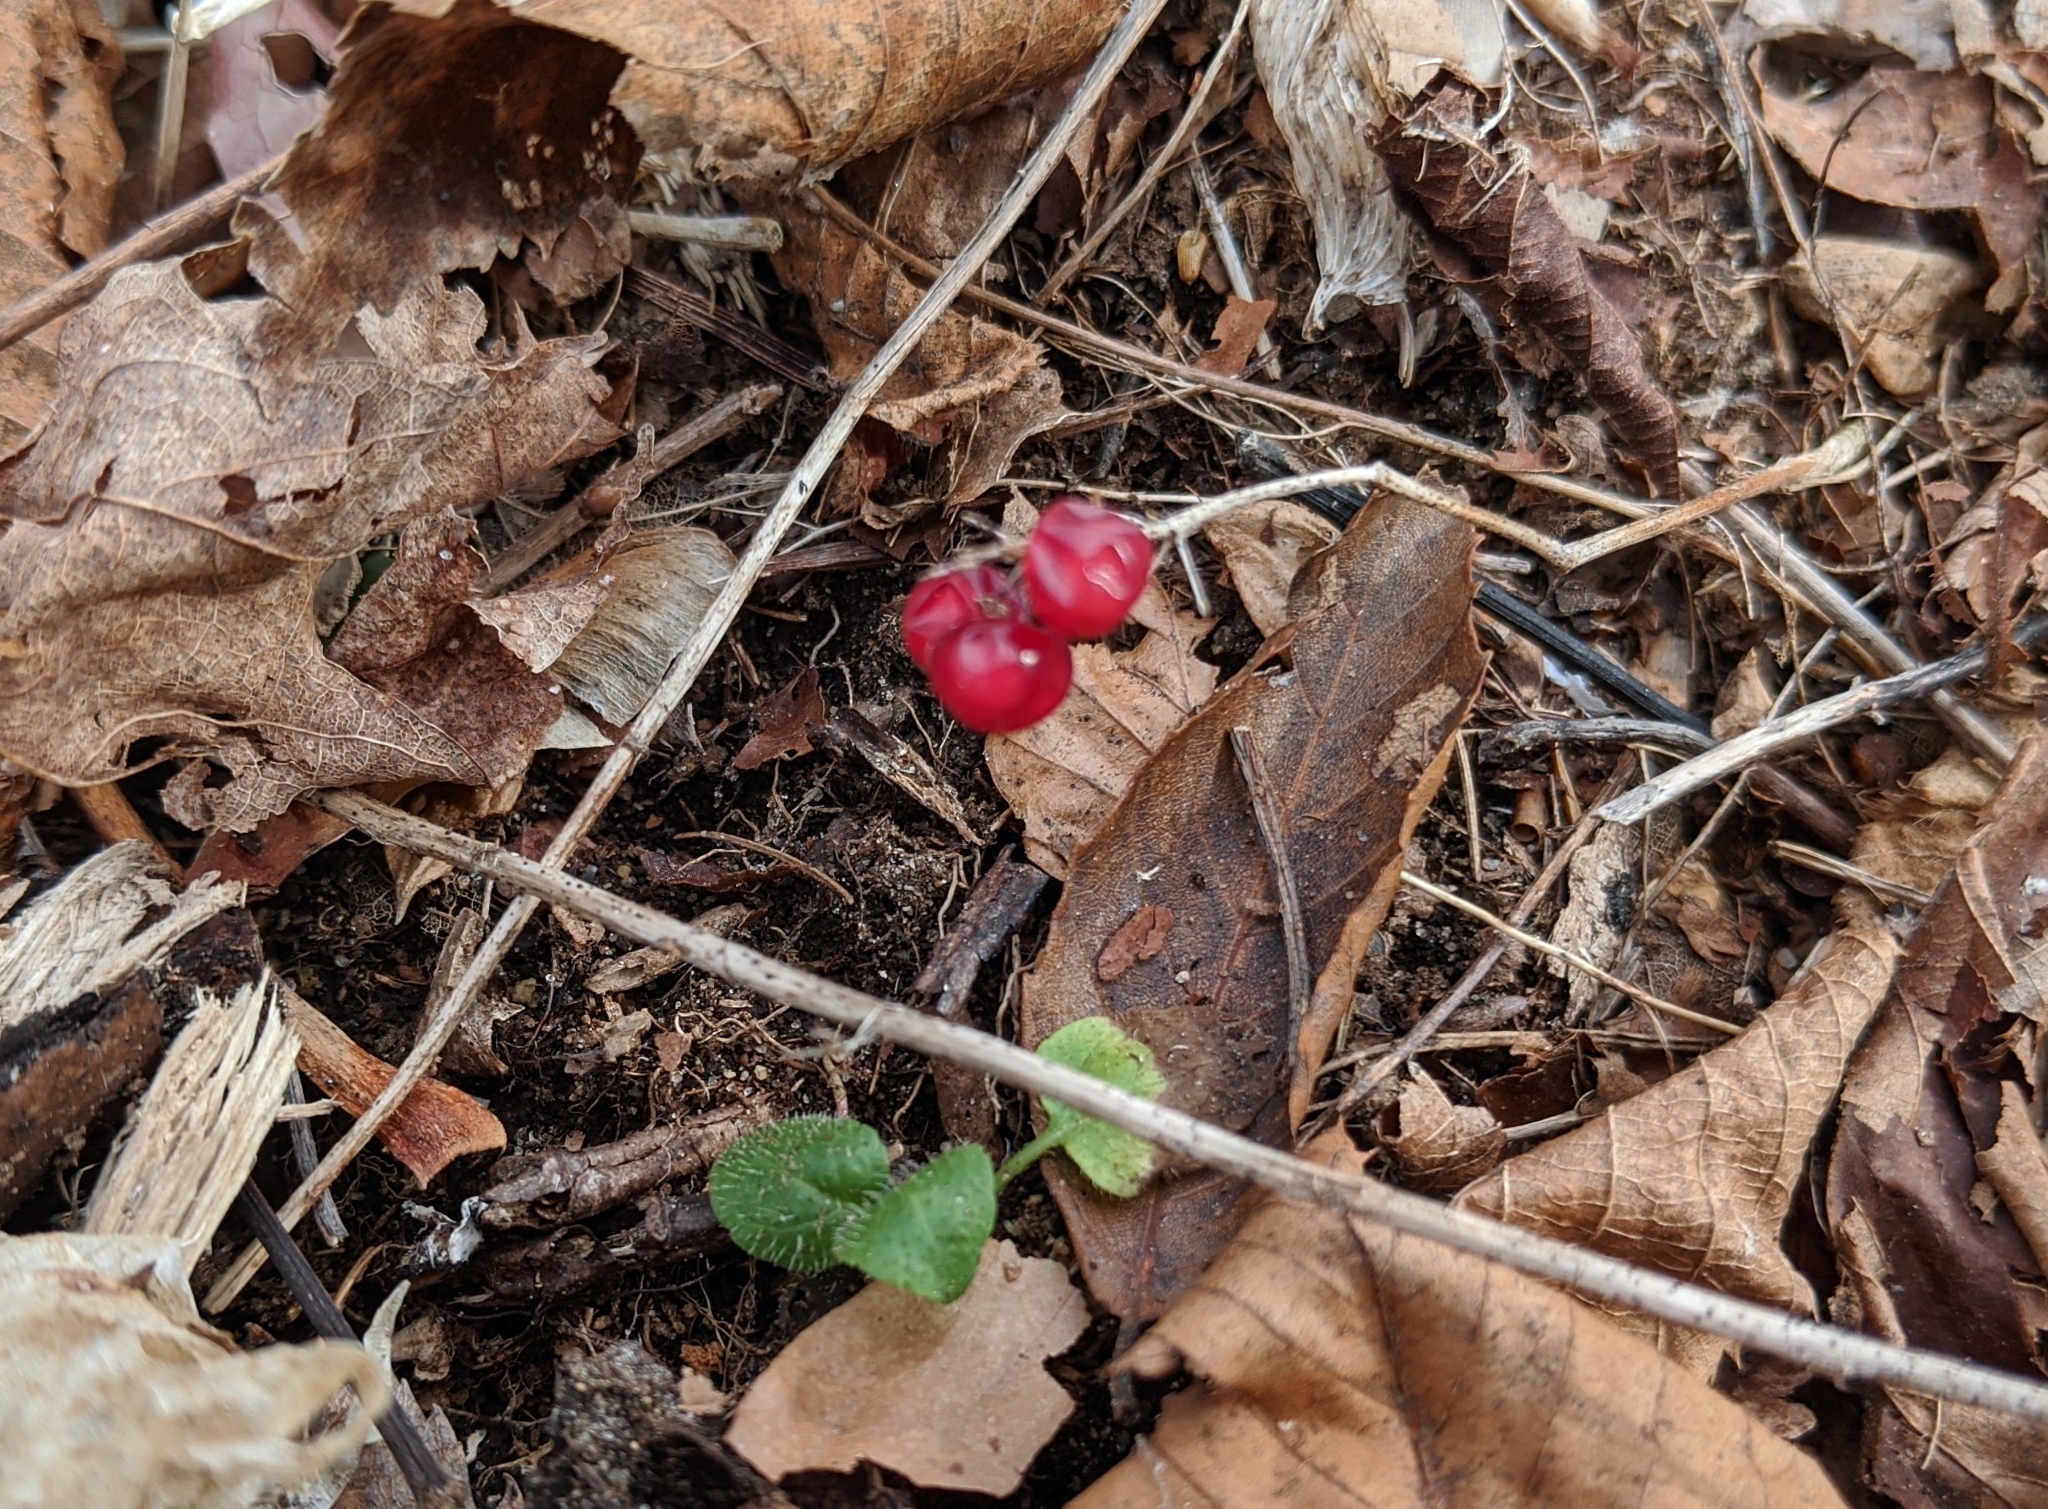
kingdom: Plantae
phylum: Tracheophyta
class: Liliopsida
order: Asparagales
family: Asparagaceae
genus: Maianthemum
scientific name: Maianthemum canadense
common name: False lily-of-the-valley
